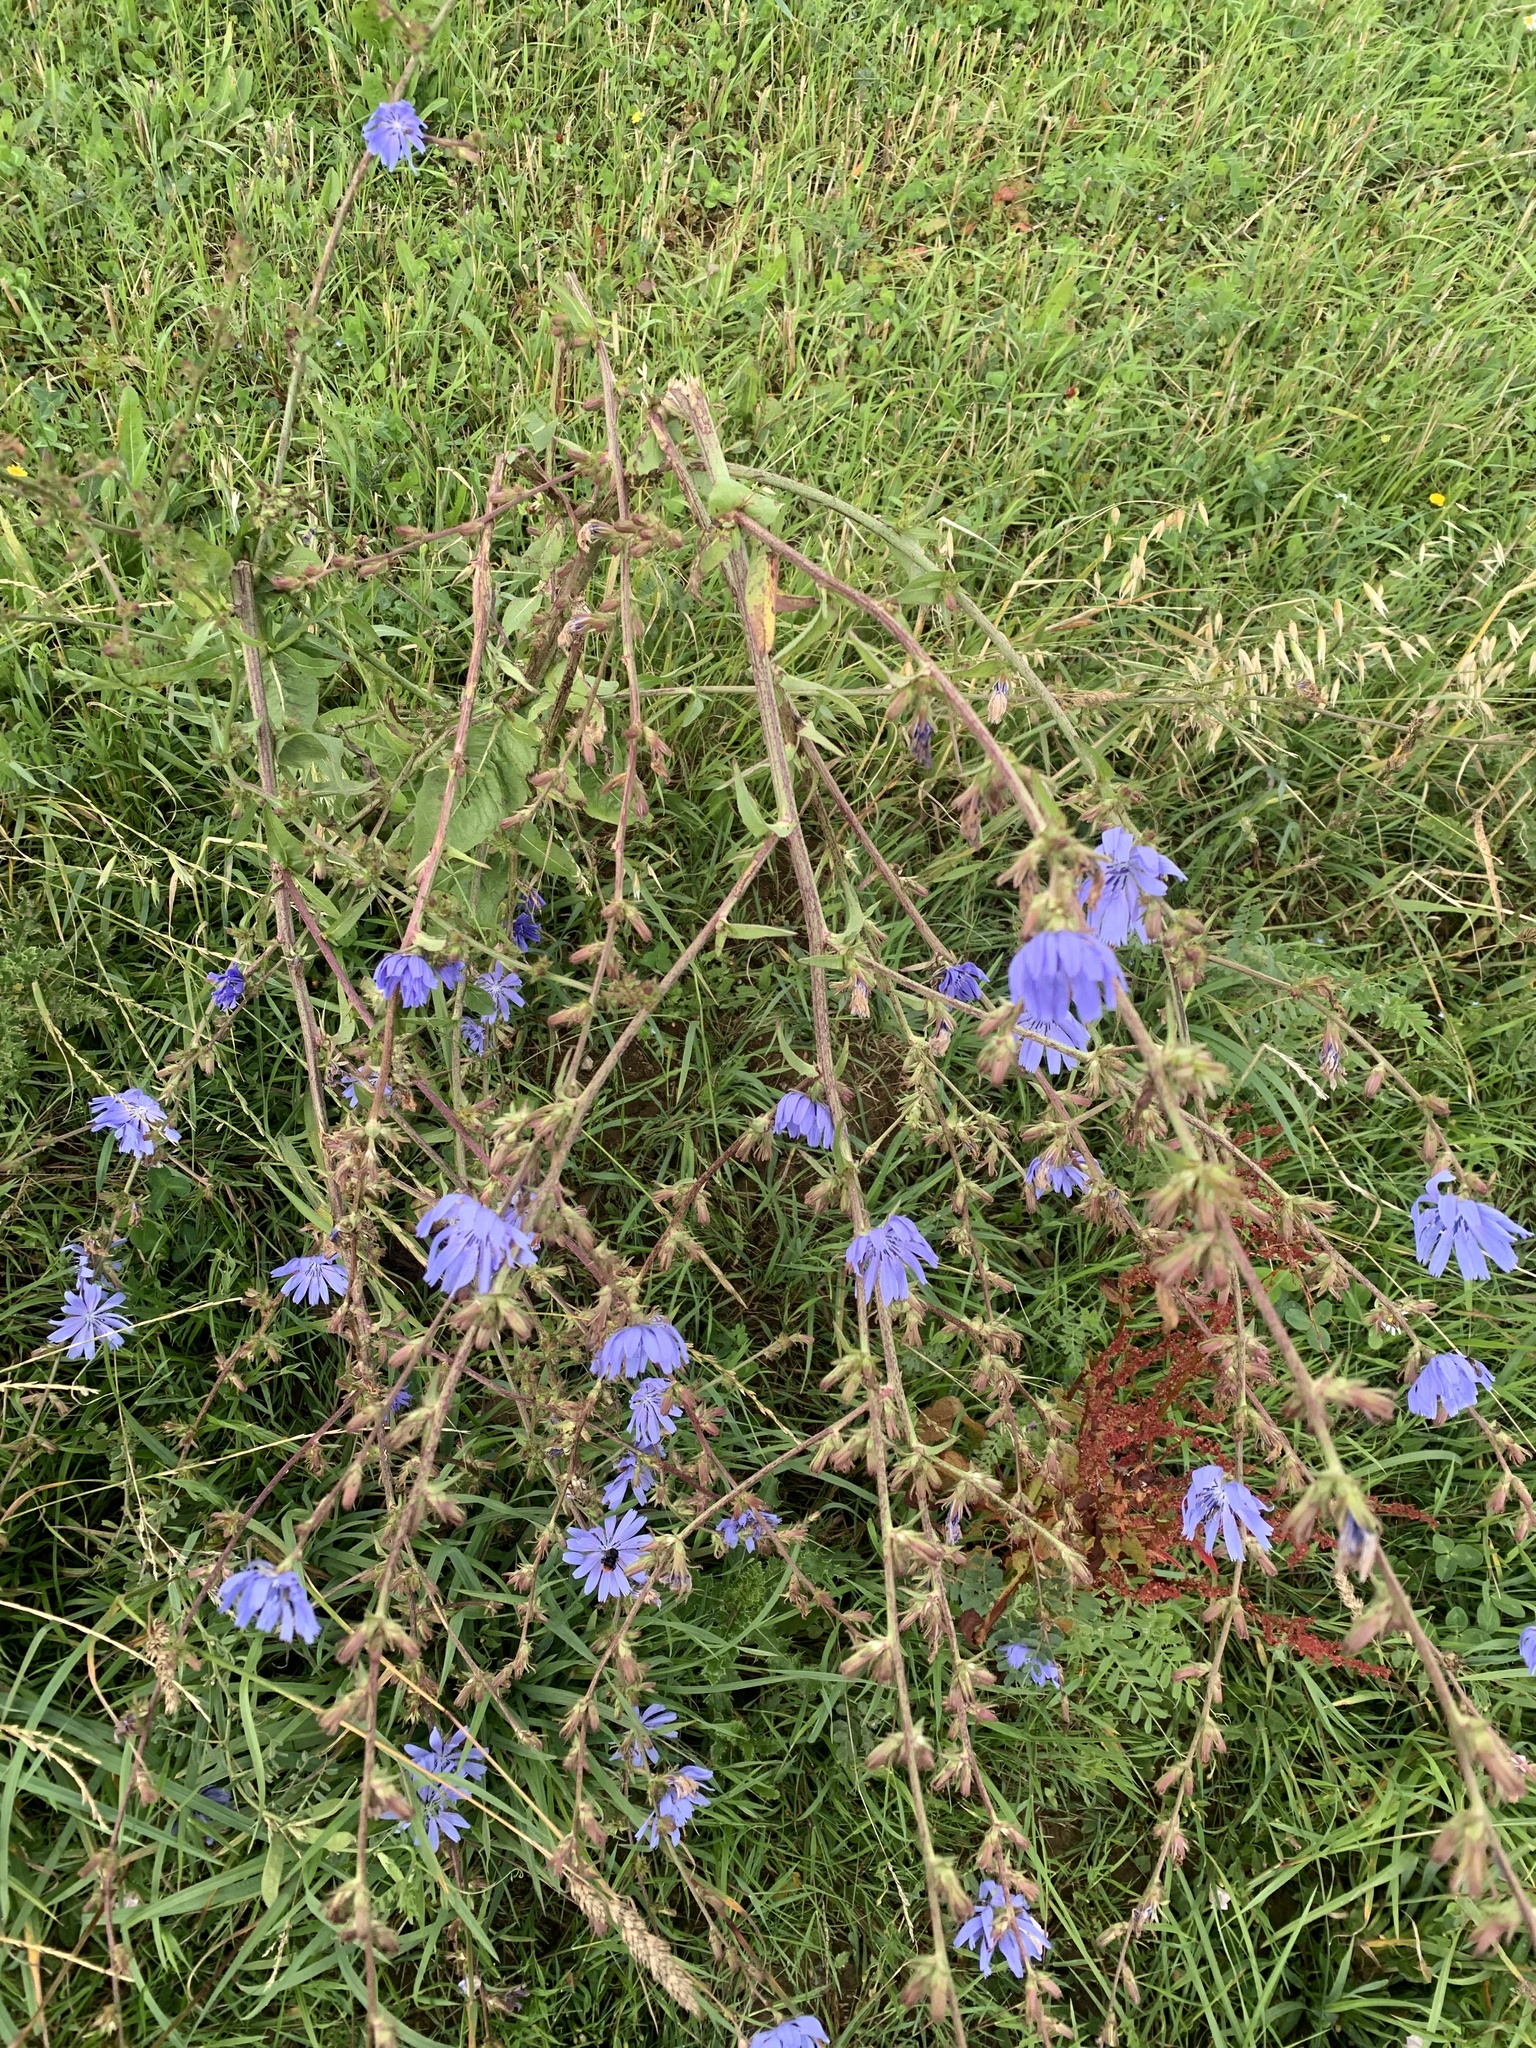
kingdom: Plantae
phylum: Tracheophyta
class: Magnoliopsida
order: Asterales
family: Asteraceae
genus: Cichorium
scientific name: Cichorium intybus
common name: Chicory
